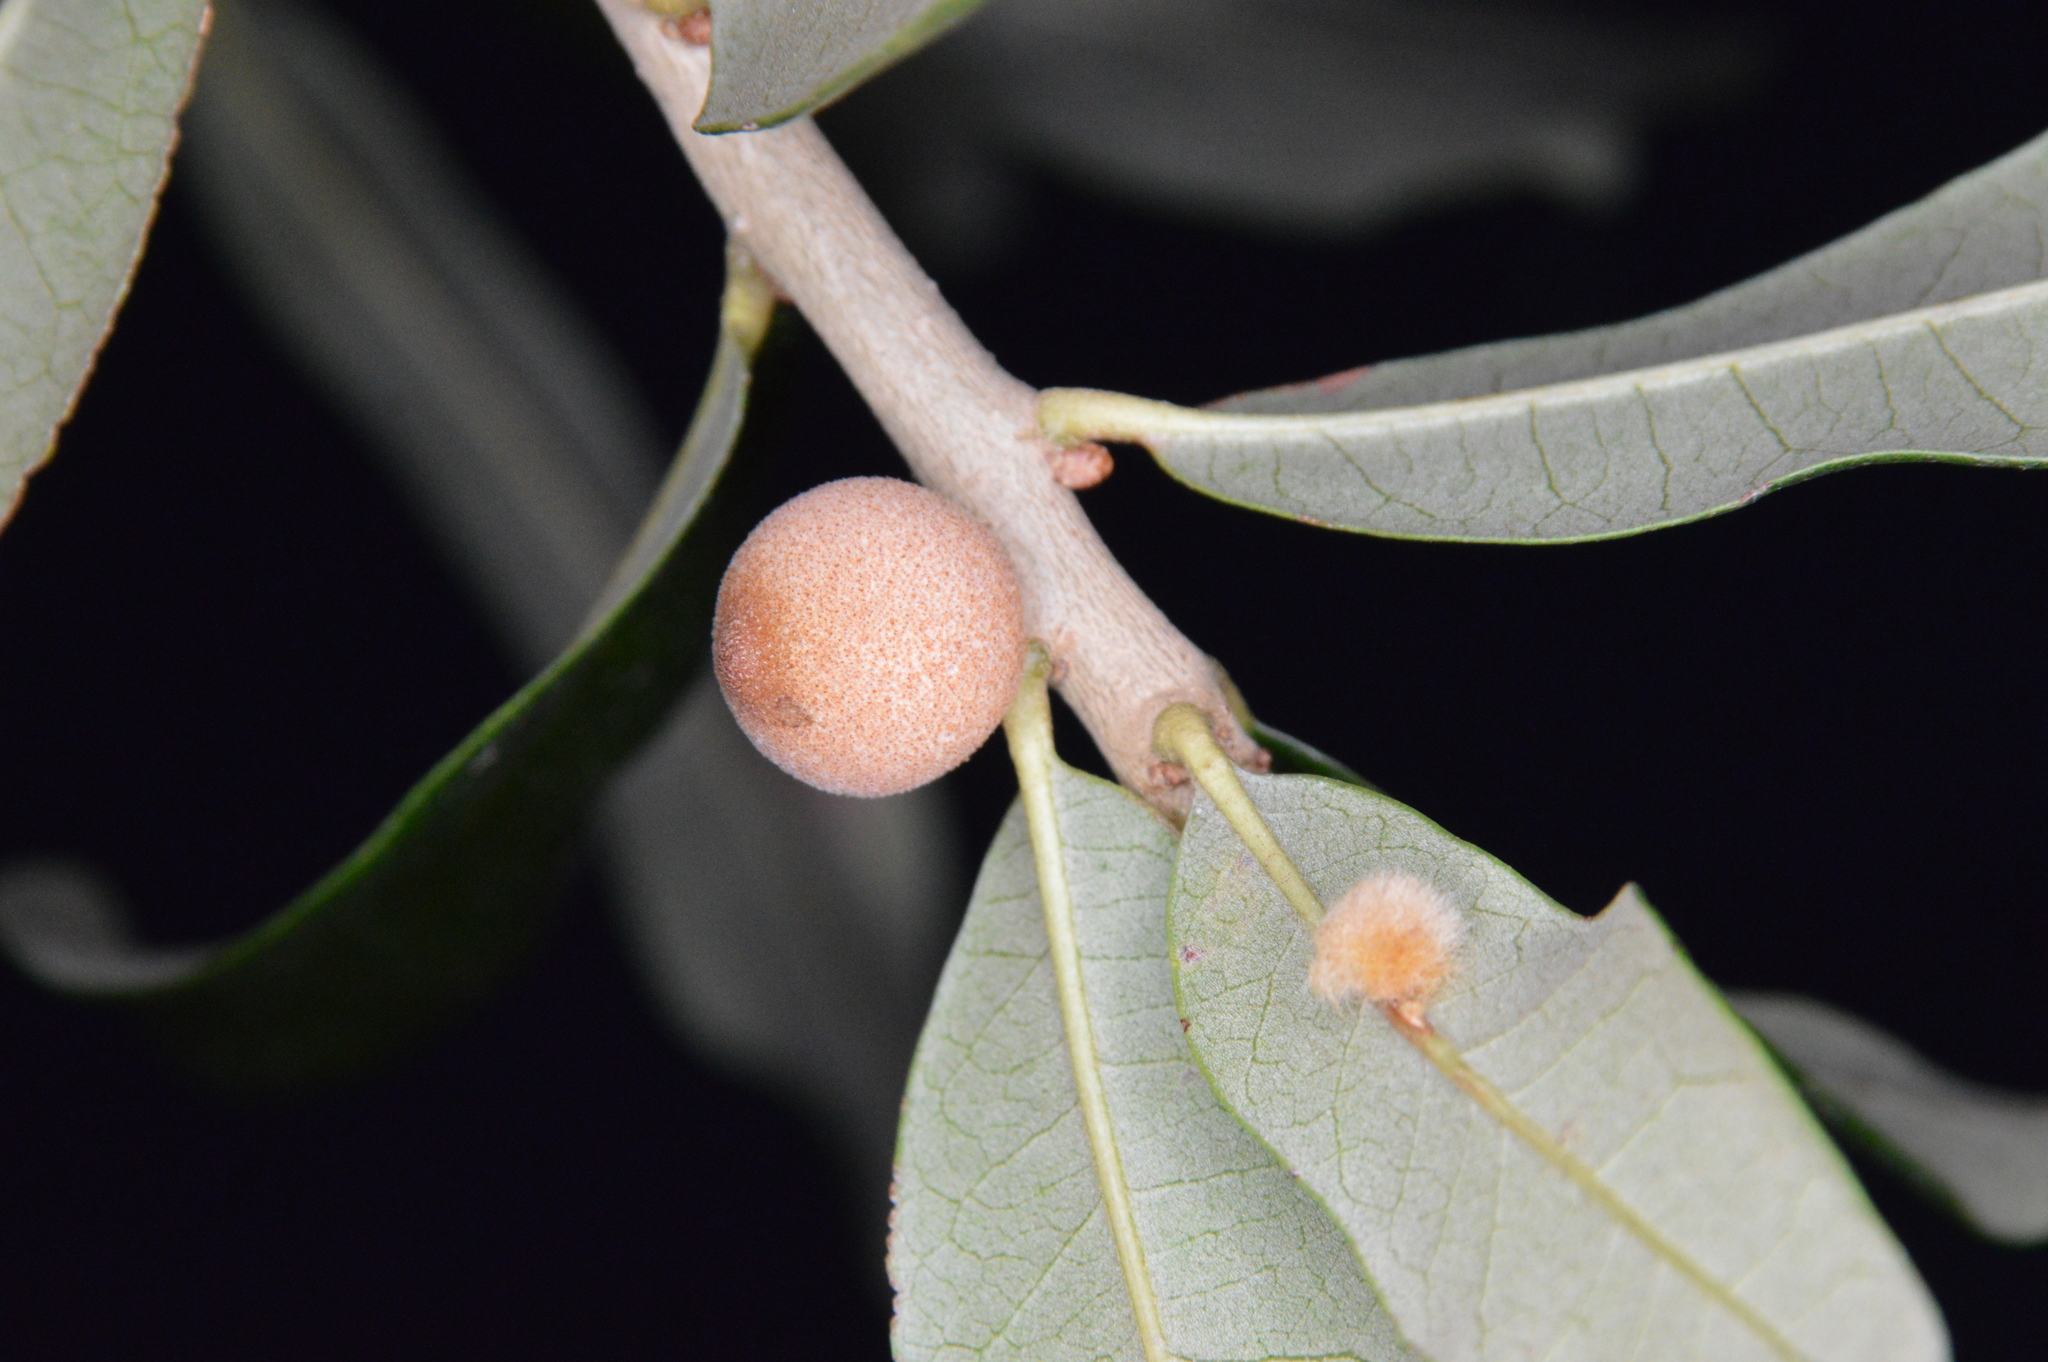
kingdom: Animalia
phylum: Arthropoda
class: Insecta
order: Hymenoptera
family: Cynipidae
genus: Disholcaspis
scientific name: Disholcaspis
